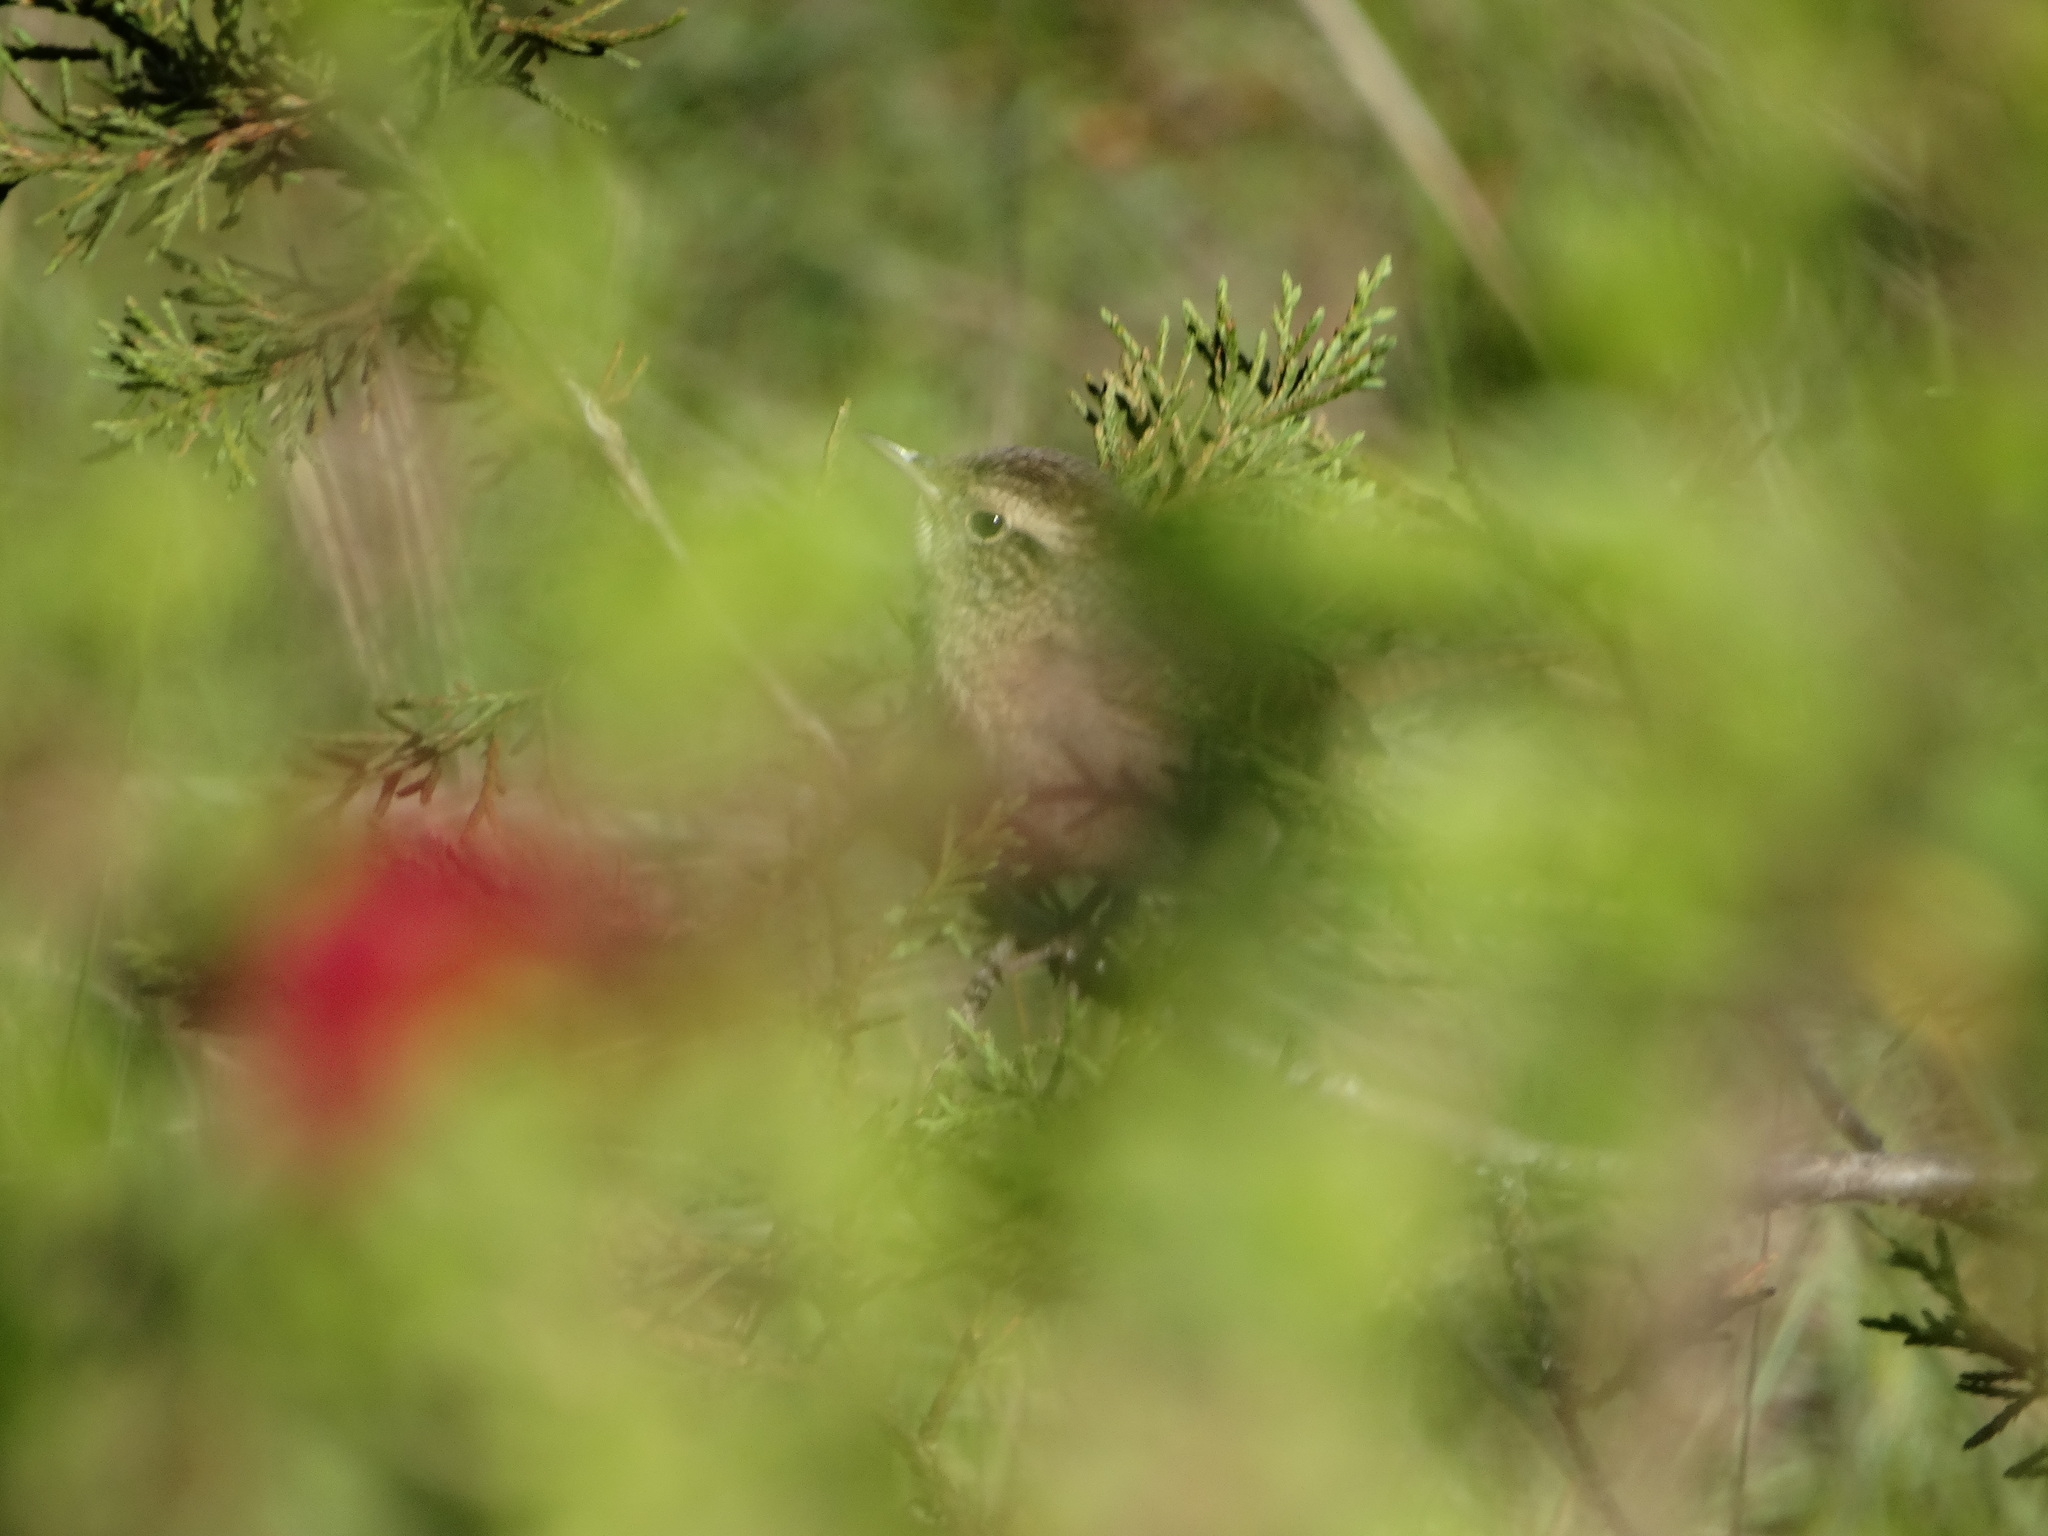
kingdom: Animalia
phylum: Chordata
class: Aves
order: Passeriformes
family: Troglodytidae
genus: Troglodytes
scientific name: Troglodytes aedon
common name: House wren
